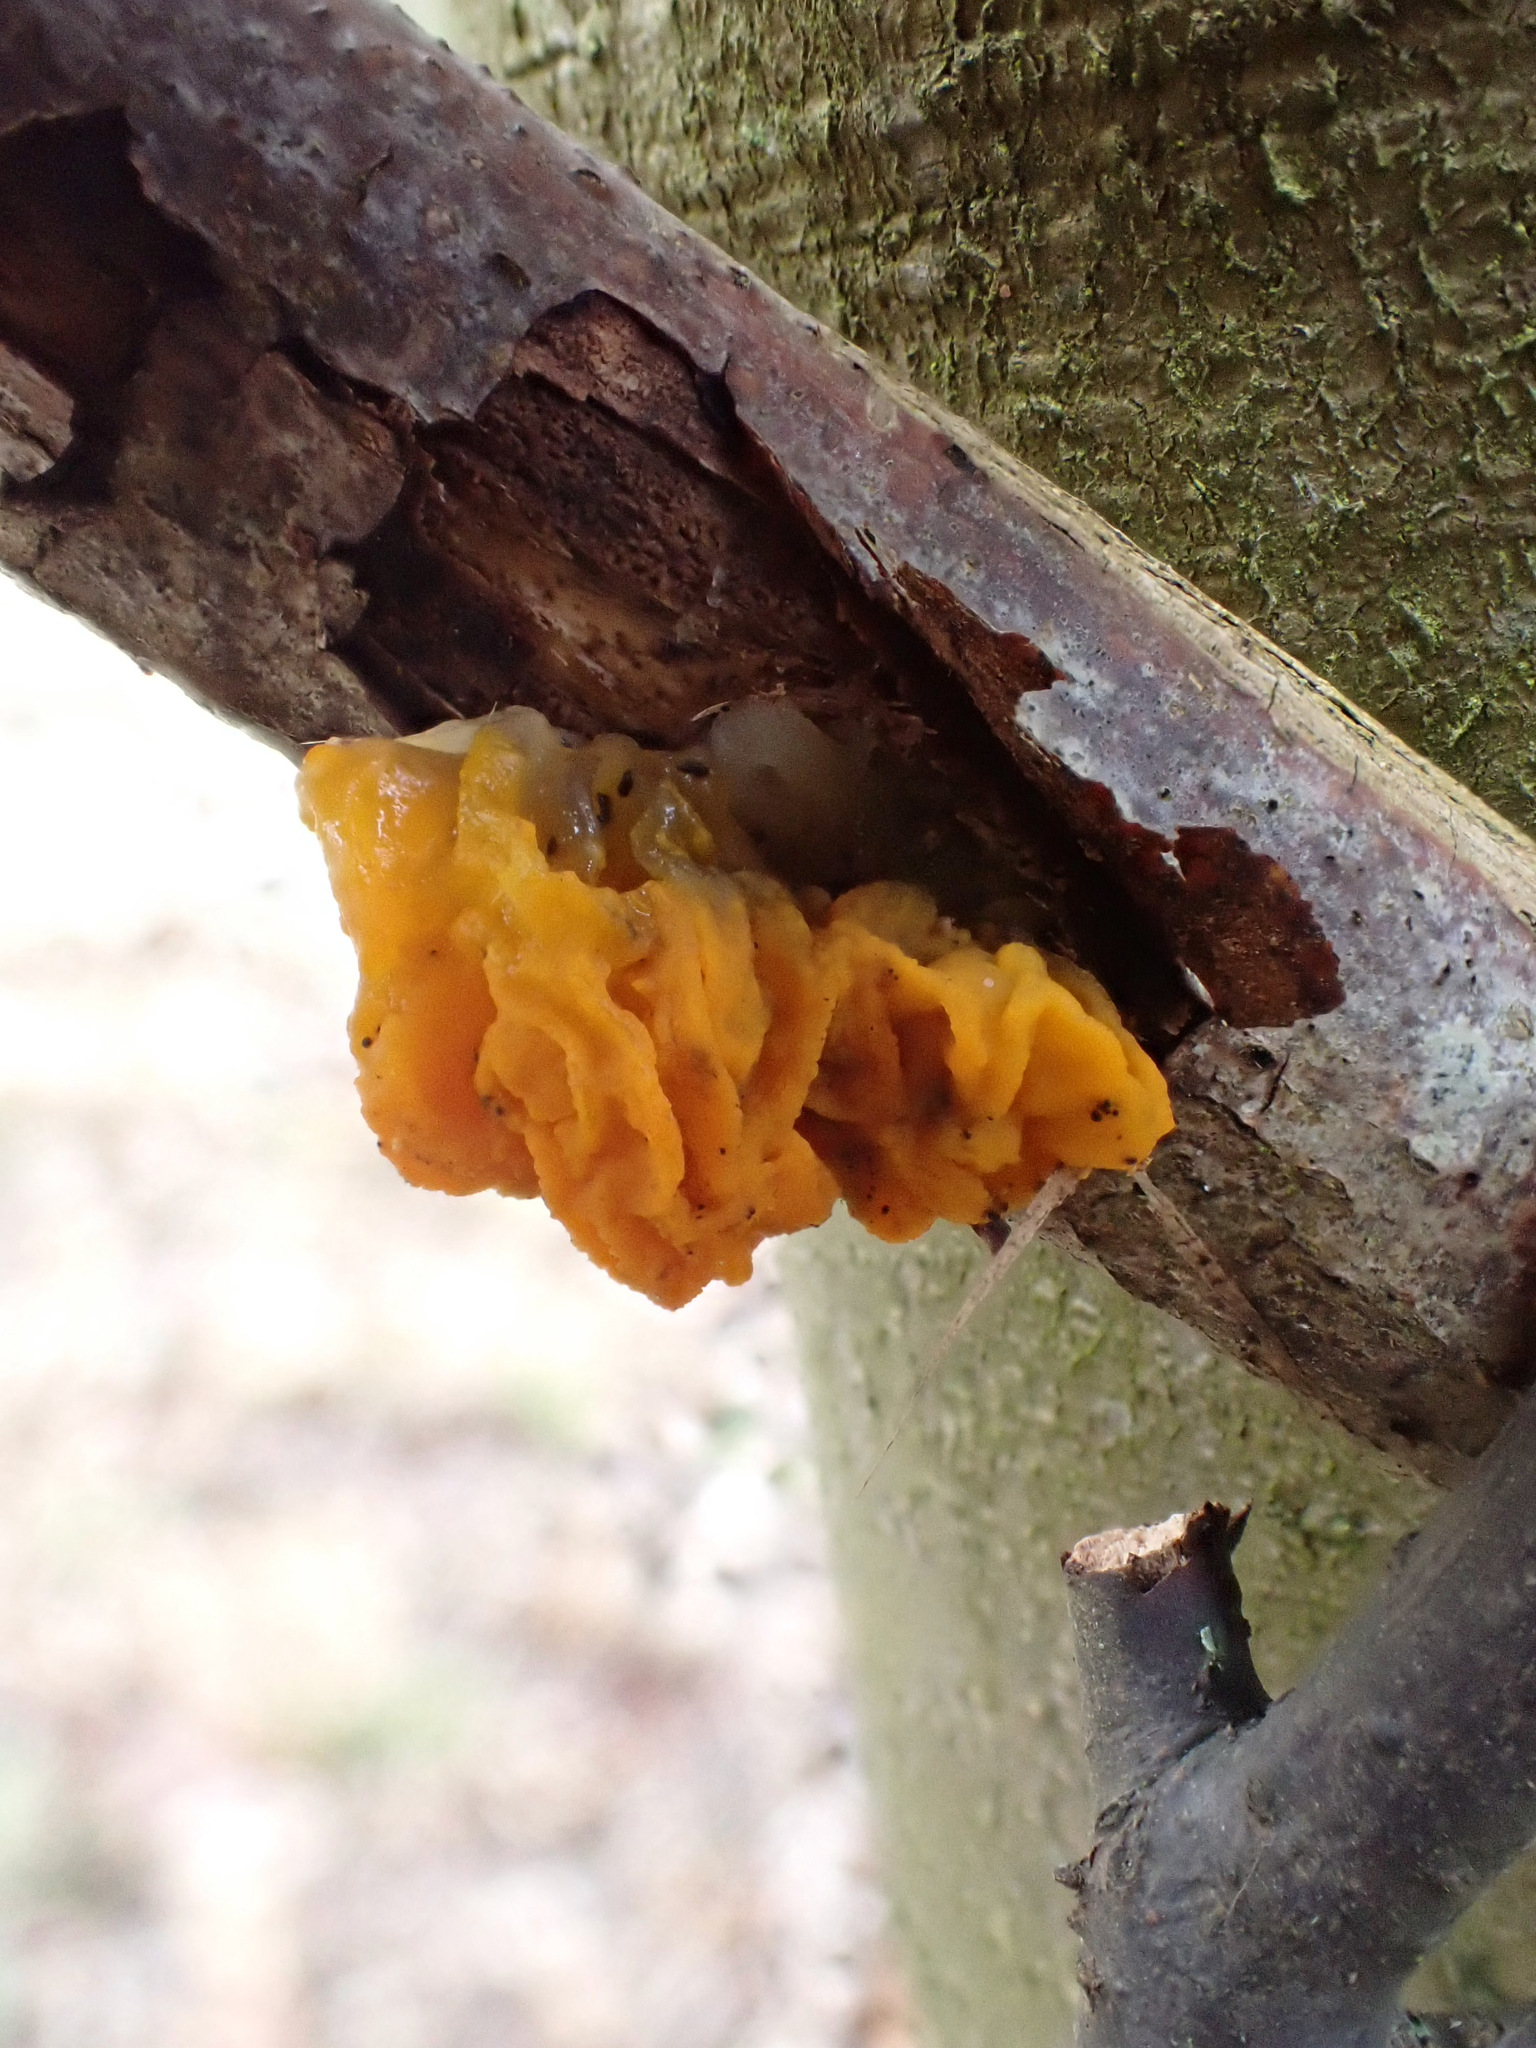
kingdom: Fungi
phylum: Basidiomycota
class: Tremellomycetes
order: Tremellales
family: Tremellaceae
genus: Tremella
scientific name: Tremella mesenterica
